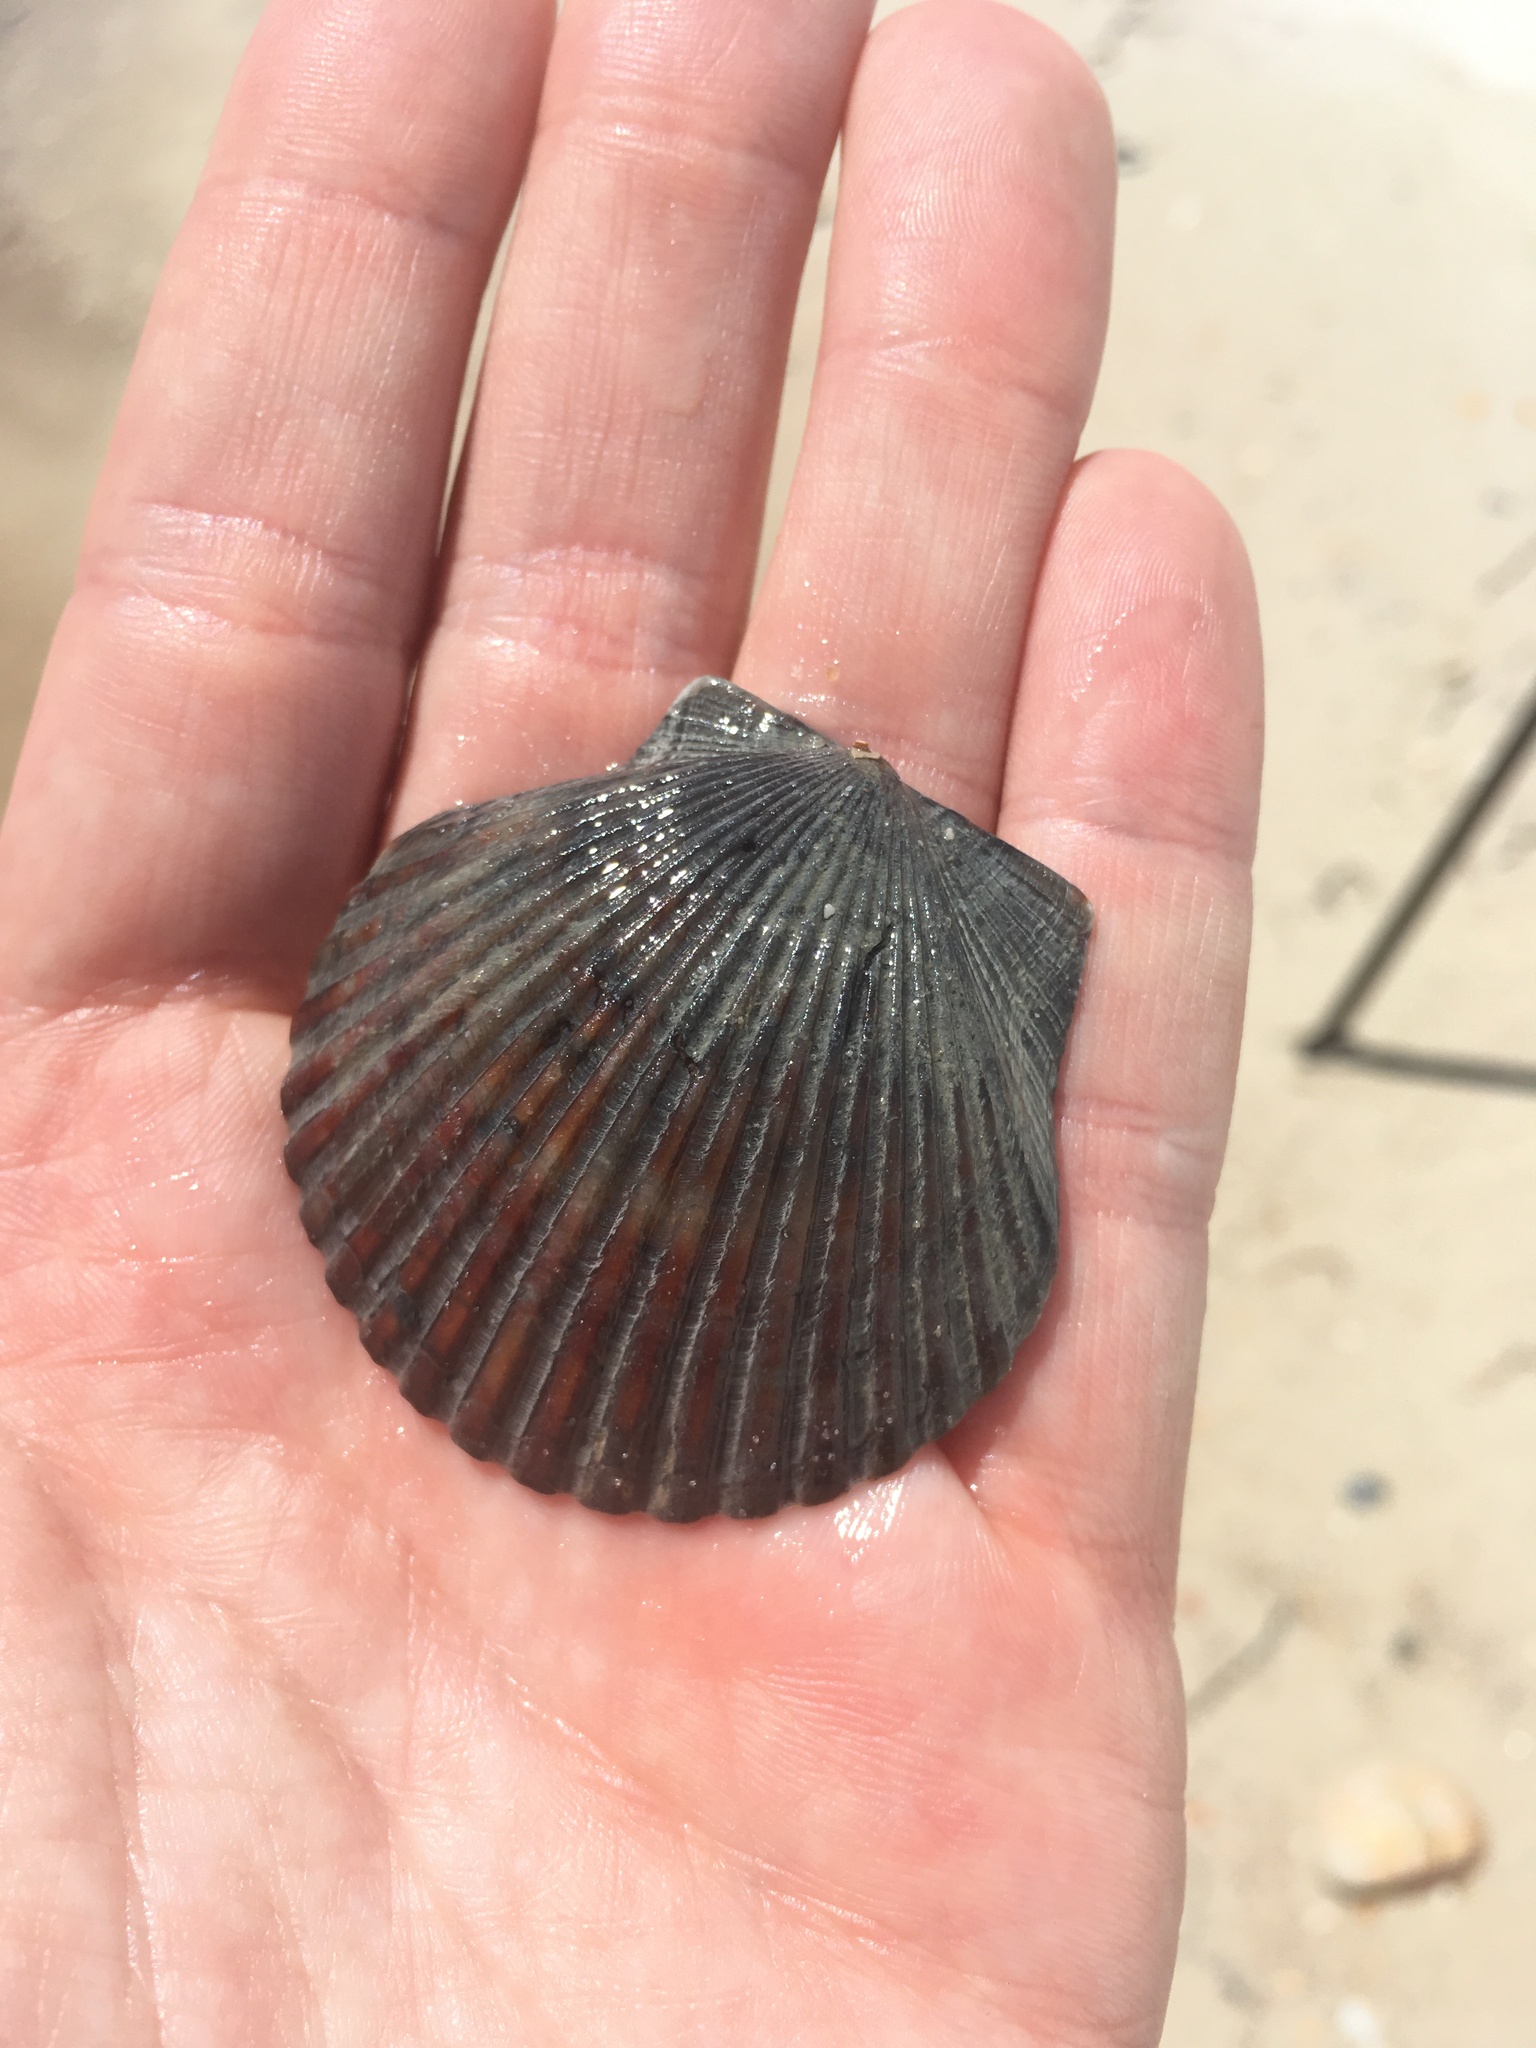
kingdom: Animalia
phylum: Mollusca
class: Bivalvia
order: Pectinida
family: Pectinidae
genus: Argopecten
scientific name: Argopecten irradians
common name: Atlantic bay scallop
